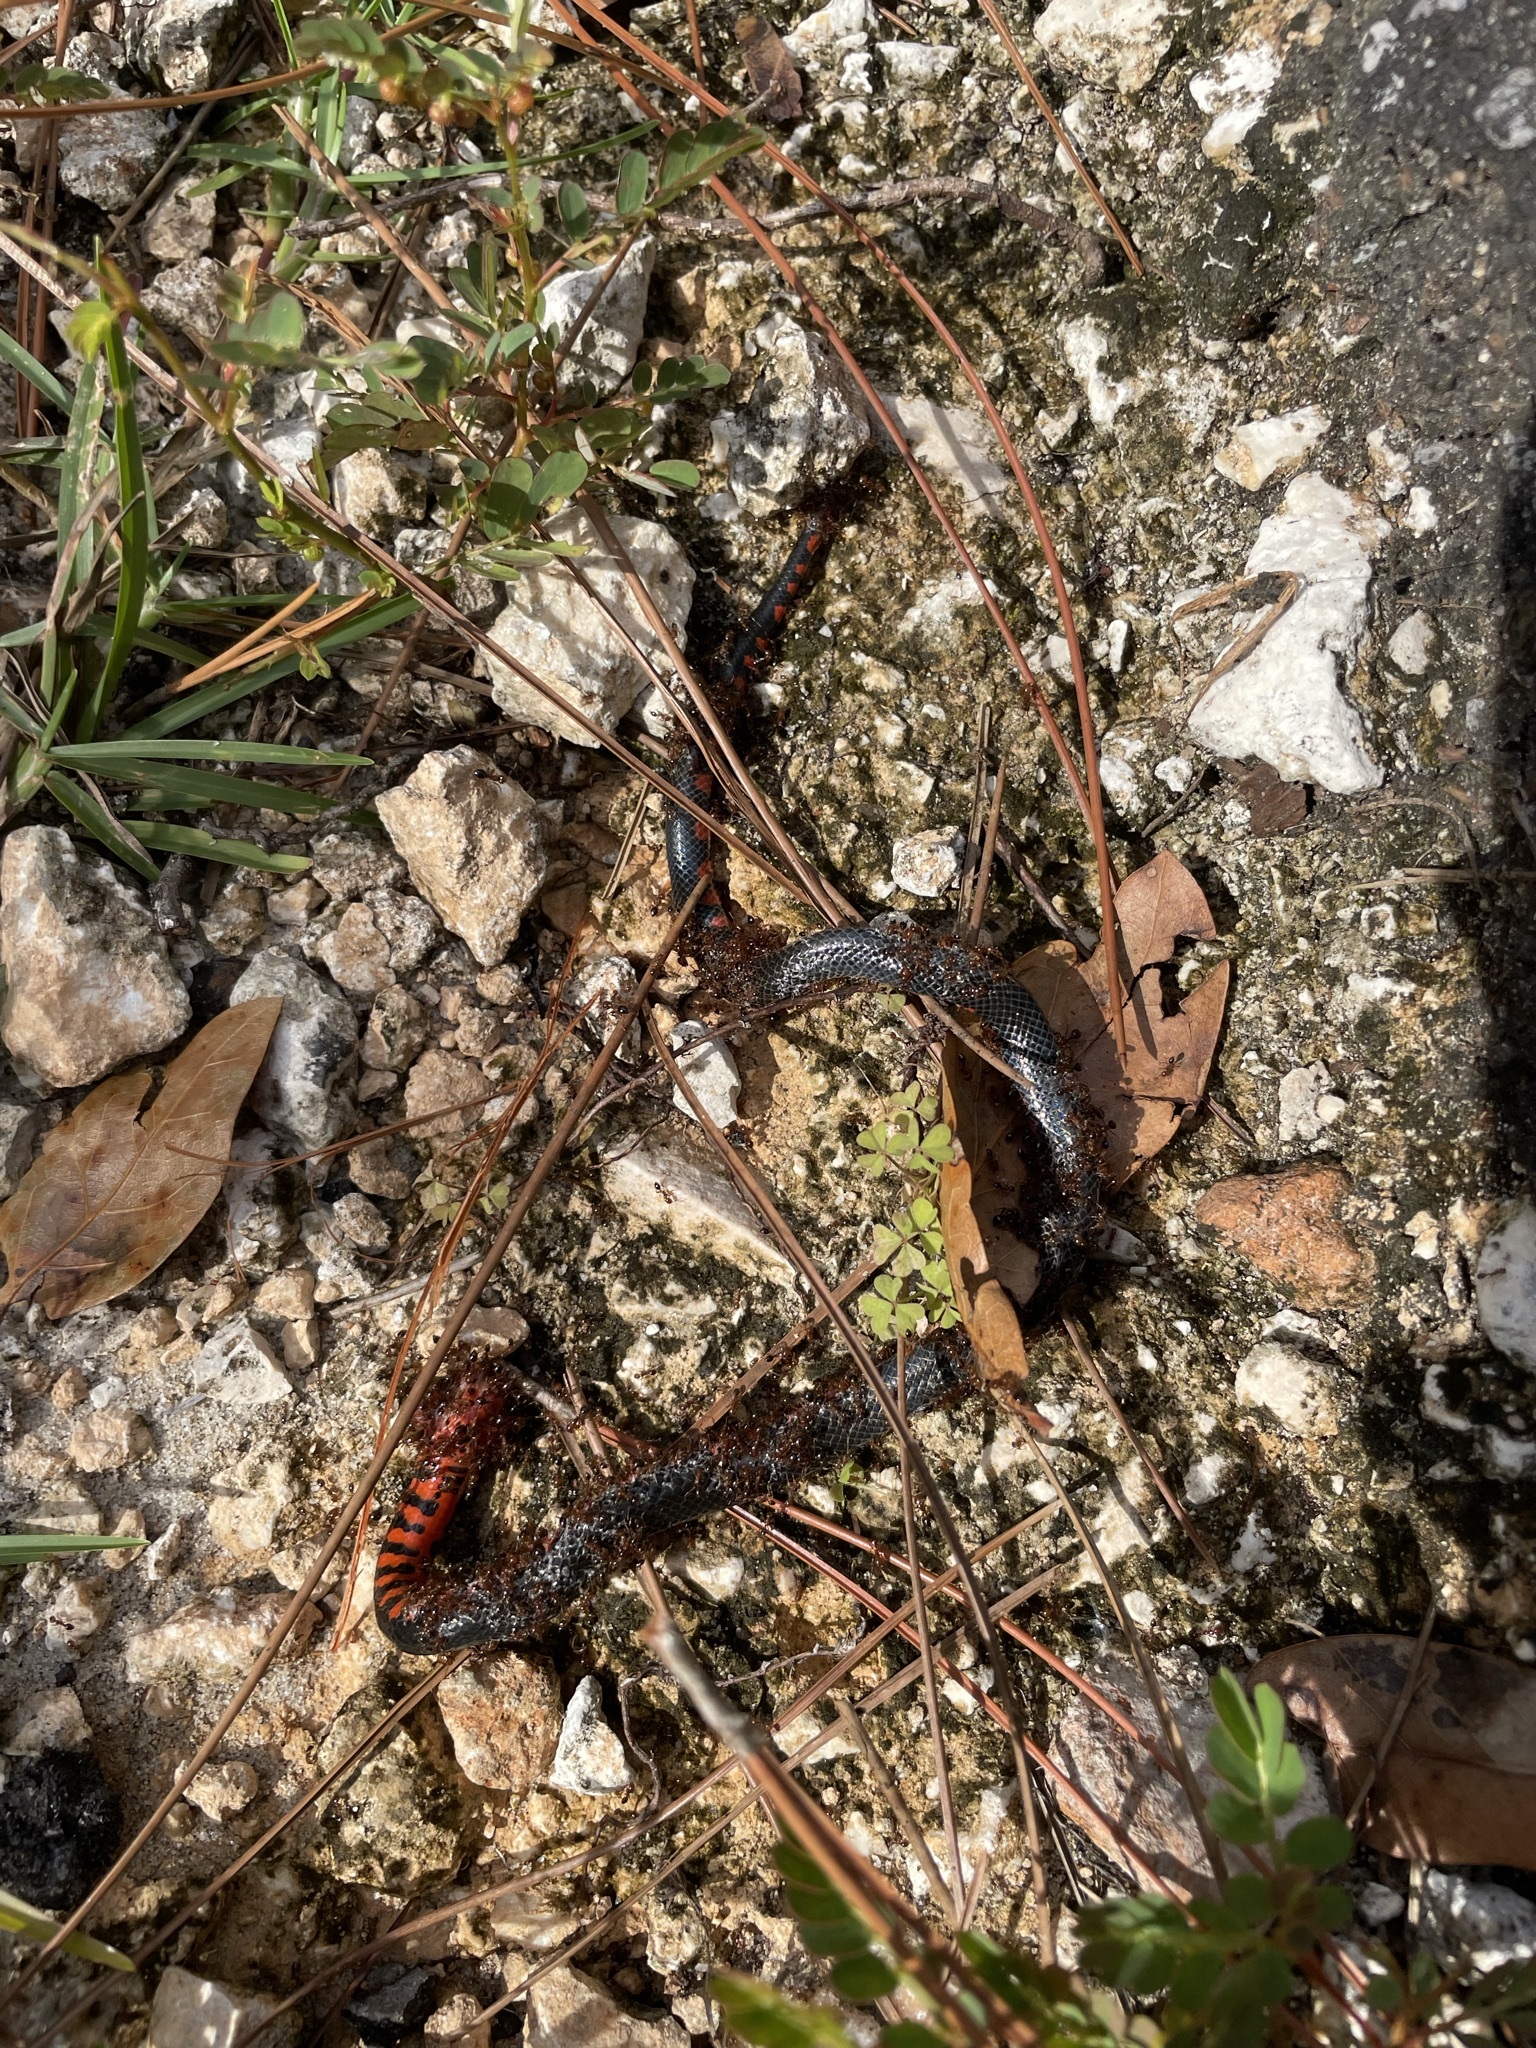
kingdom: Animalia
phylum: Chordata
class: Squamata
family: Colubridae
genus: Farancia
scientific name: Farancia abacura
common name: Mud snake
